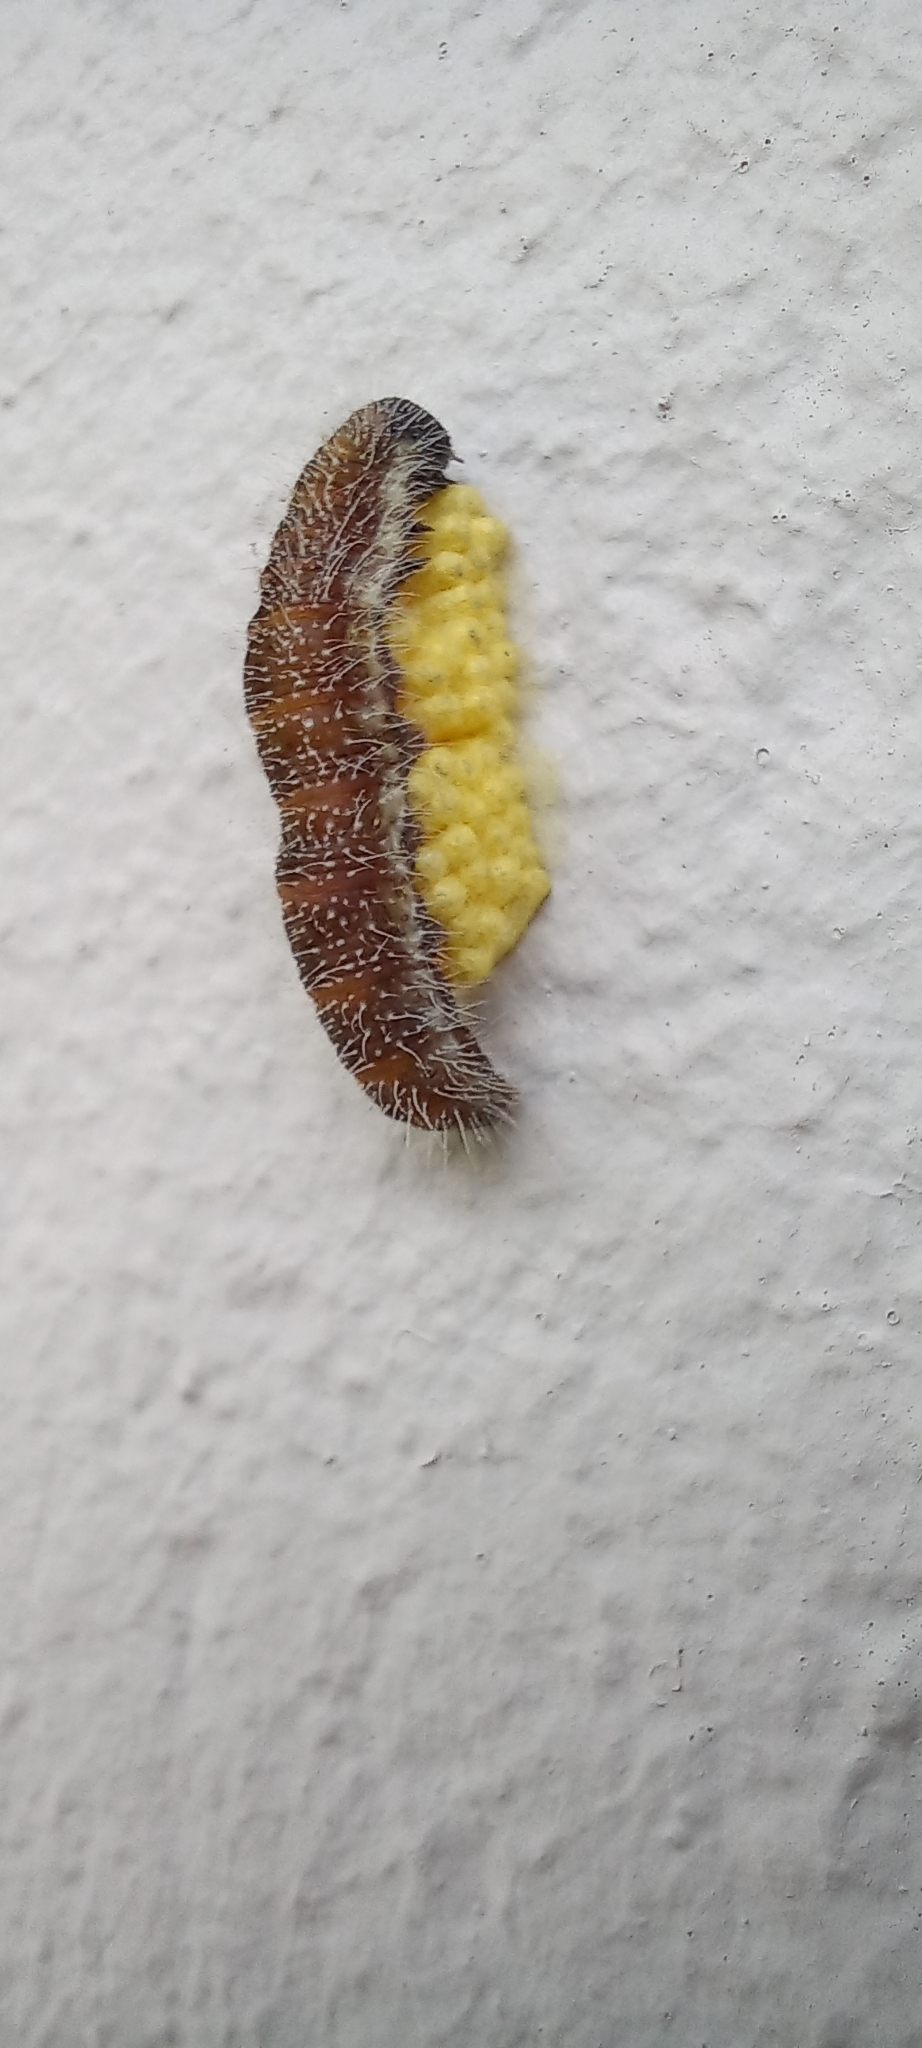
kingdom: Animalia
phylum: Arthropoda
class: Insecta
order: Lepidoptera
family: Pieridae
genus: Mylothris
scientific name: Mylothris agathina
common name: Eastern dotted border
